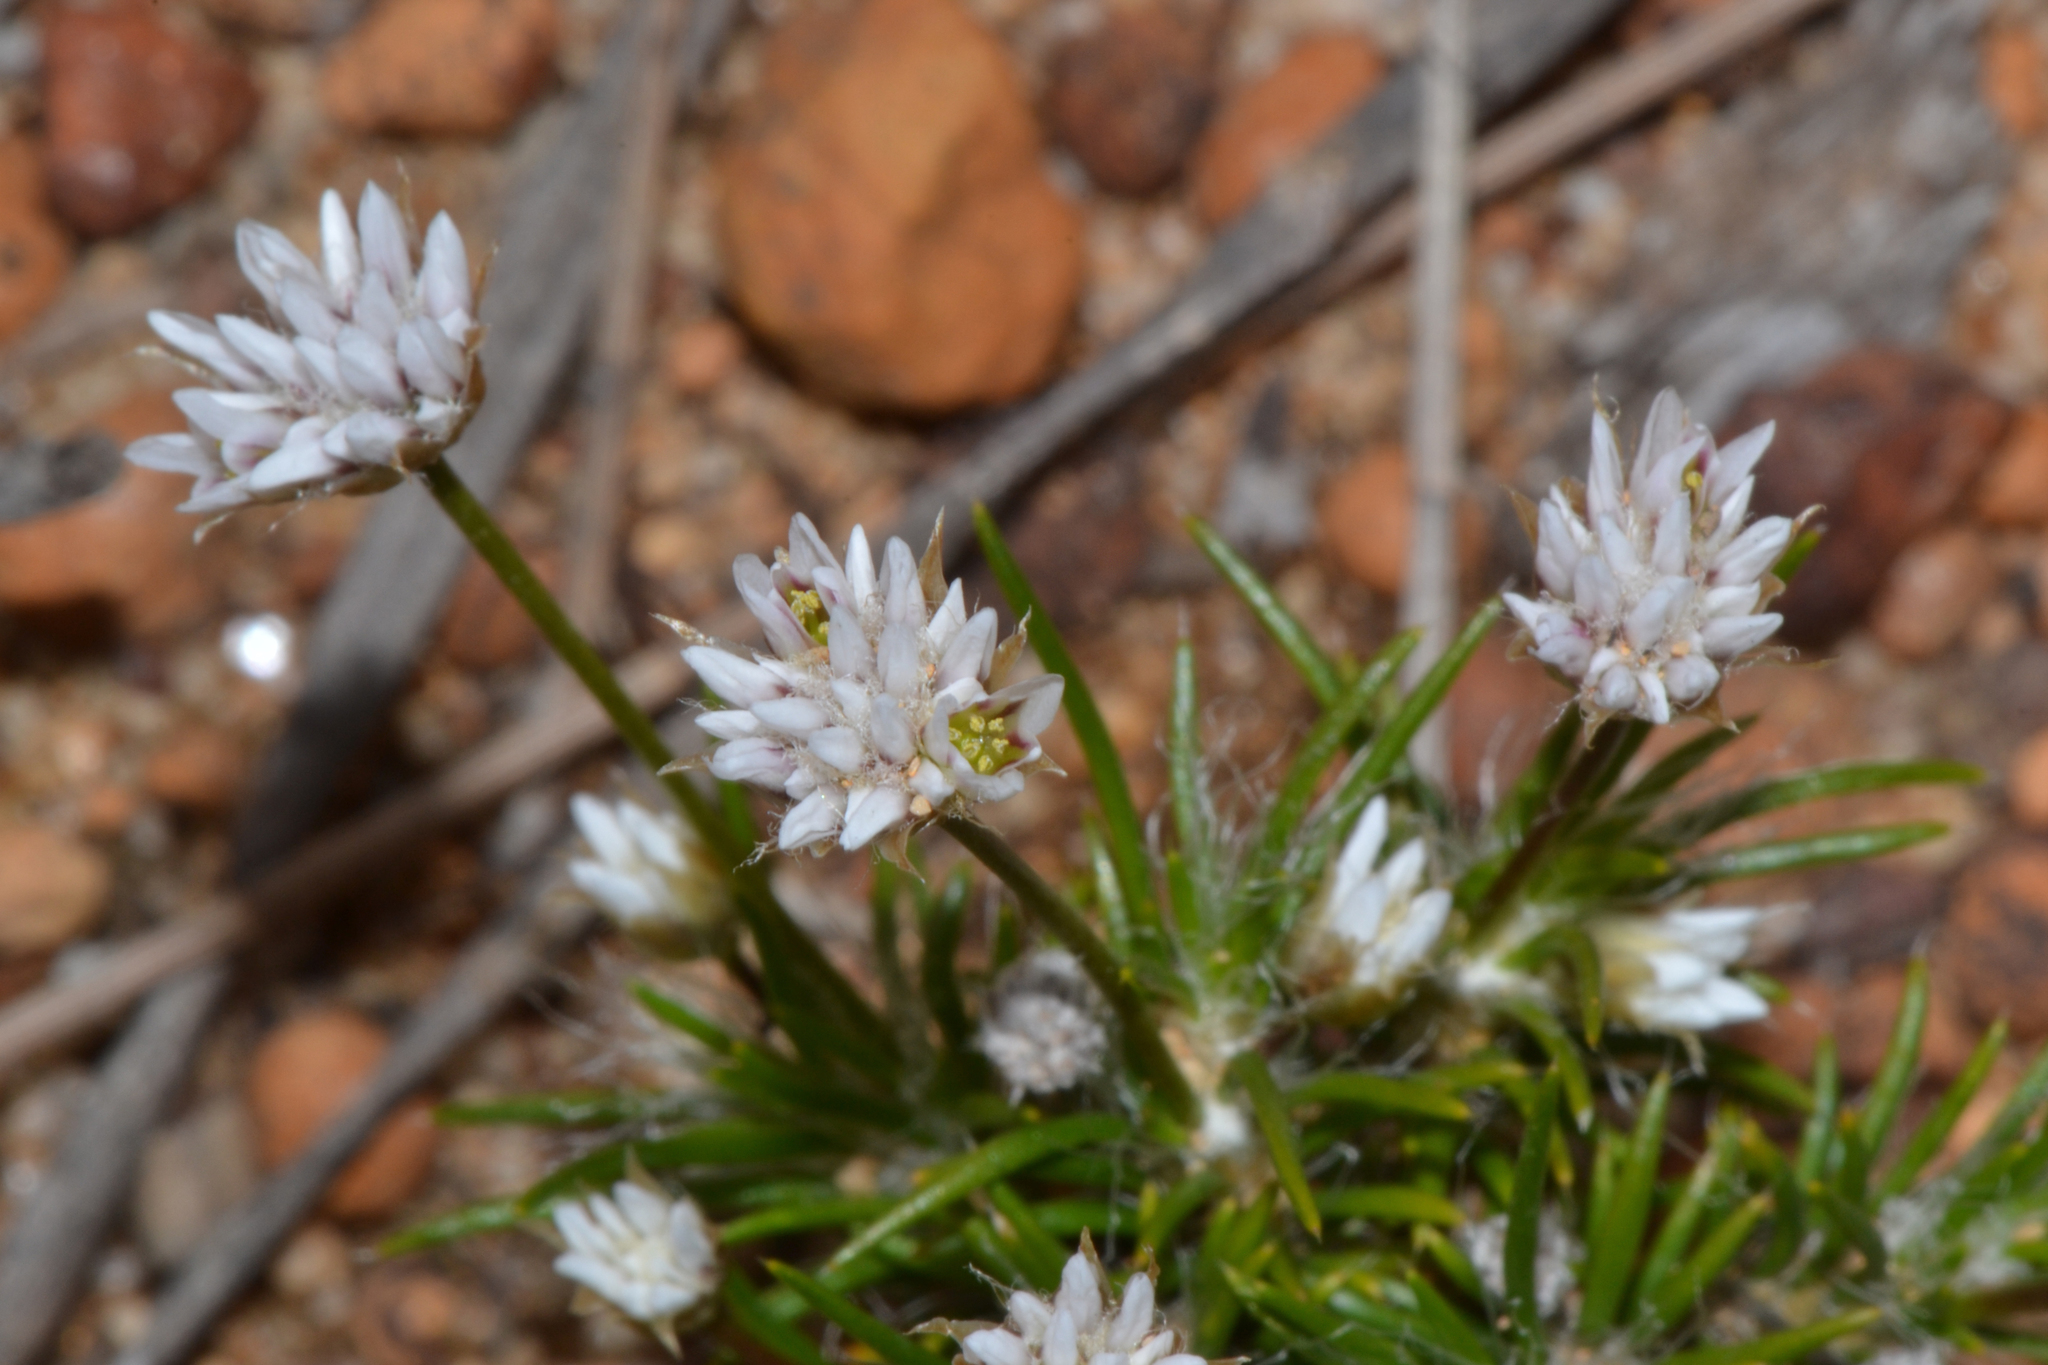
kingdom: Plantae
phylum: Tracheophyta
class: Liliopsida
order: Asparagales
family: Asparagaceae
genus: Laxmannia
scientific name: Laxmannia squarrosa
